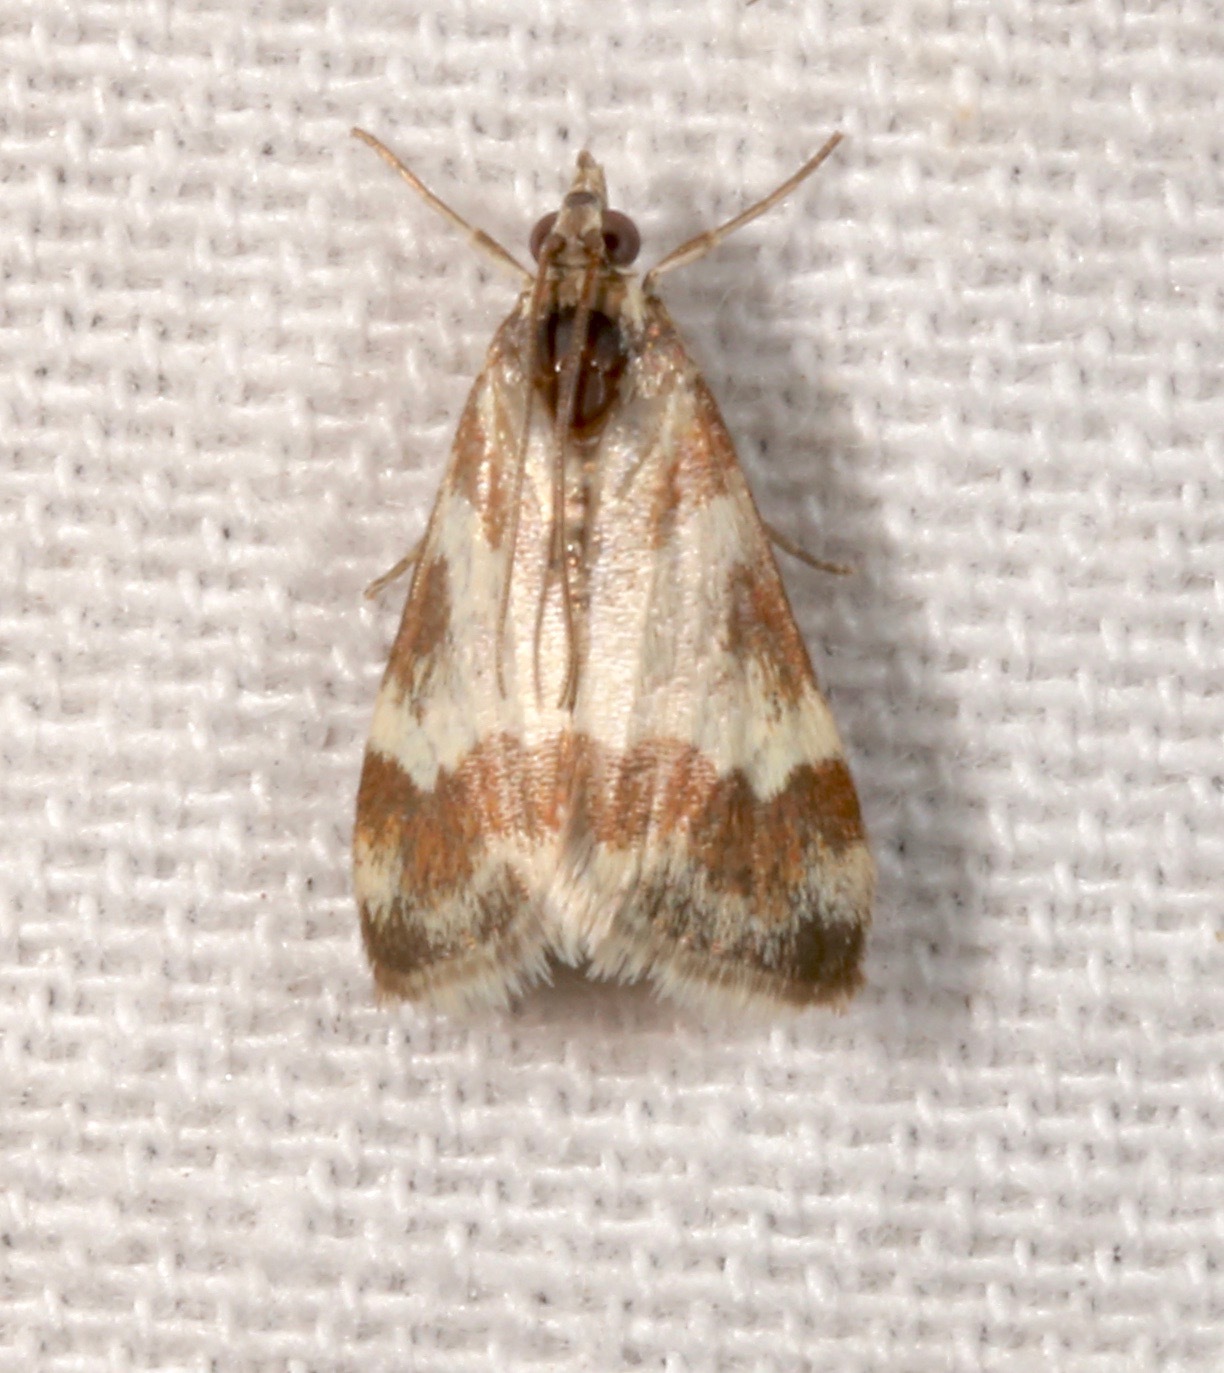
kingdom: Animalia
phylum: Arthropoda
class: Insecta
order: Lepidoptera
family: Crambidae
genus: Noctuelia
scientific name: Noctuelia Mimoschinia rufofascialis
